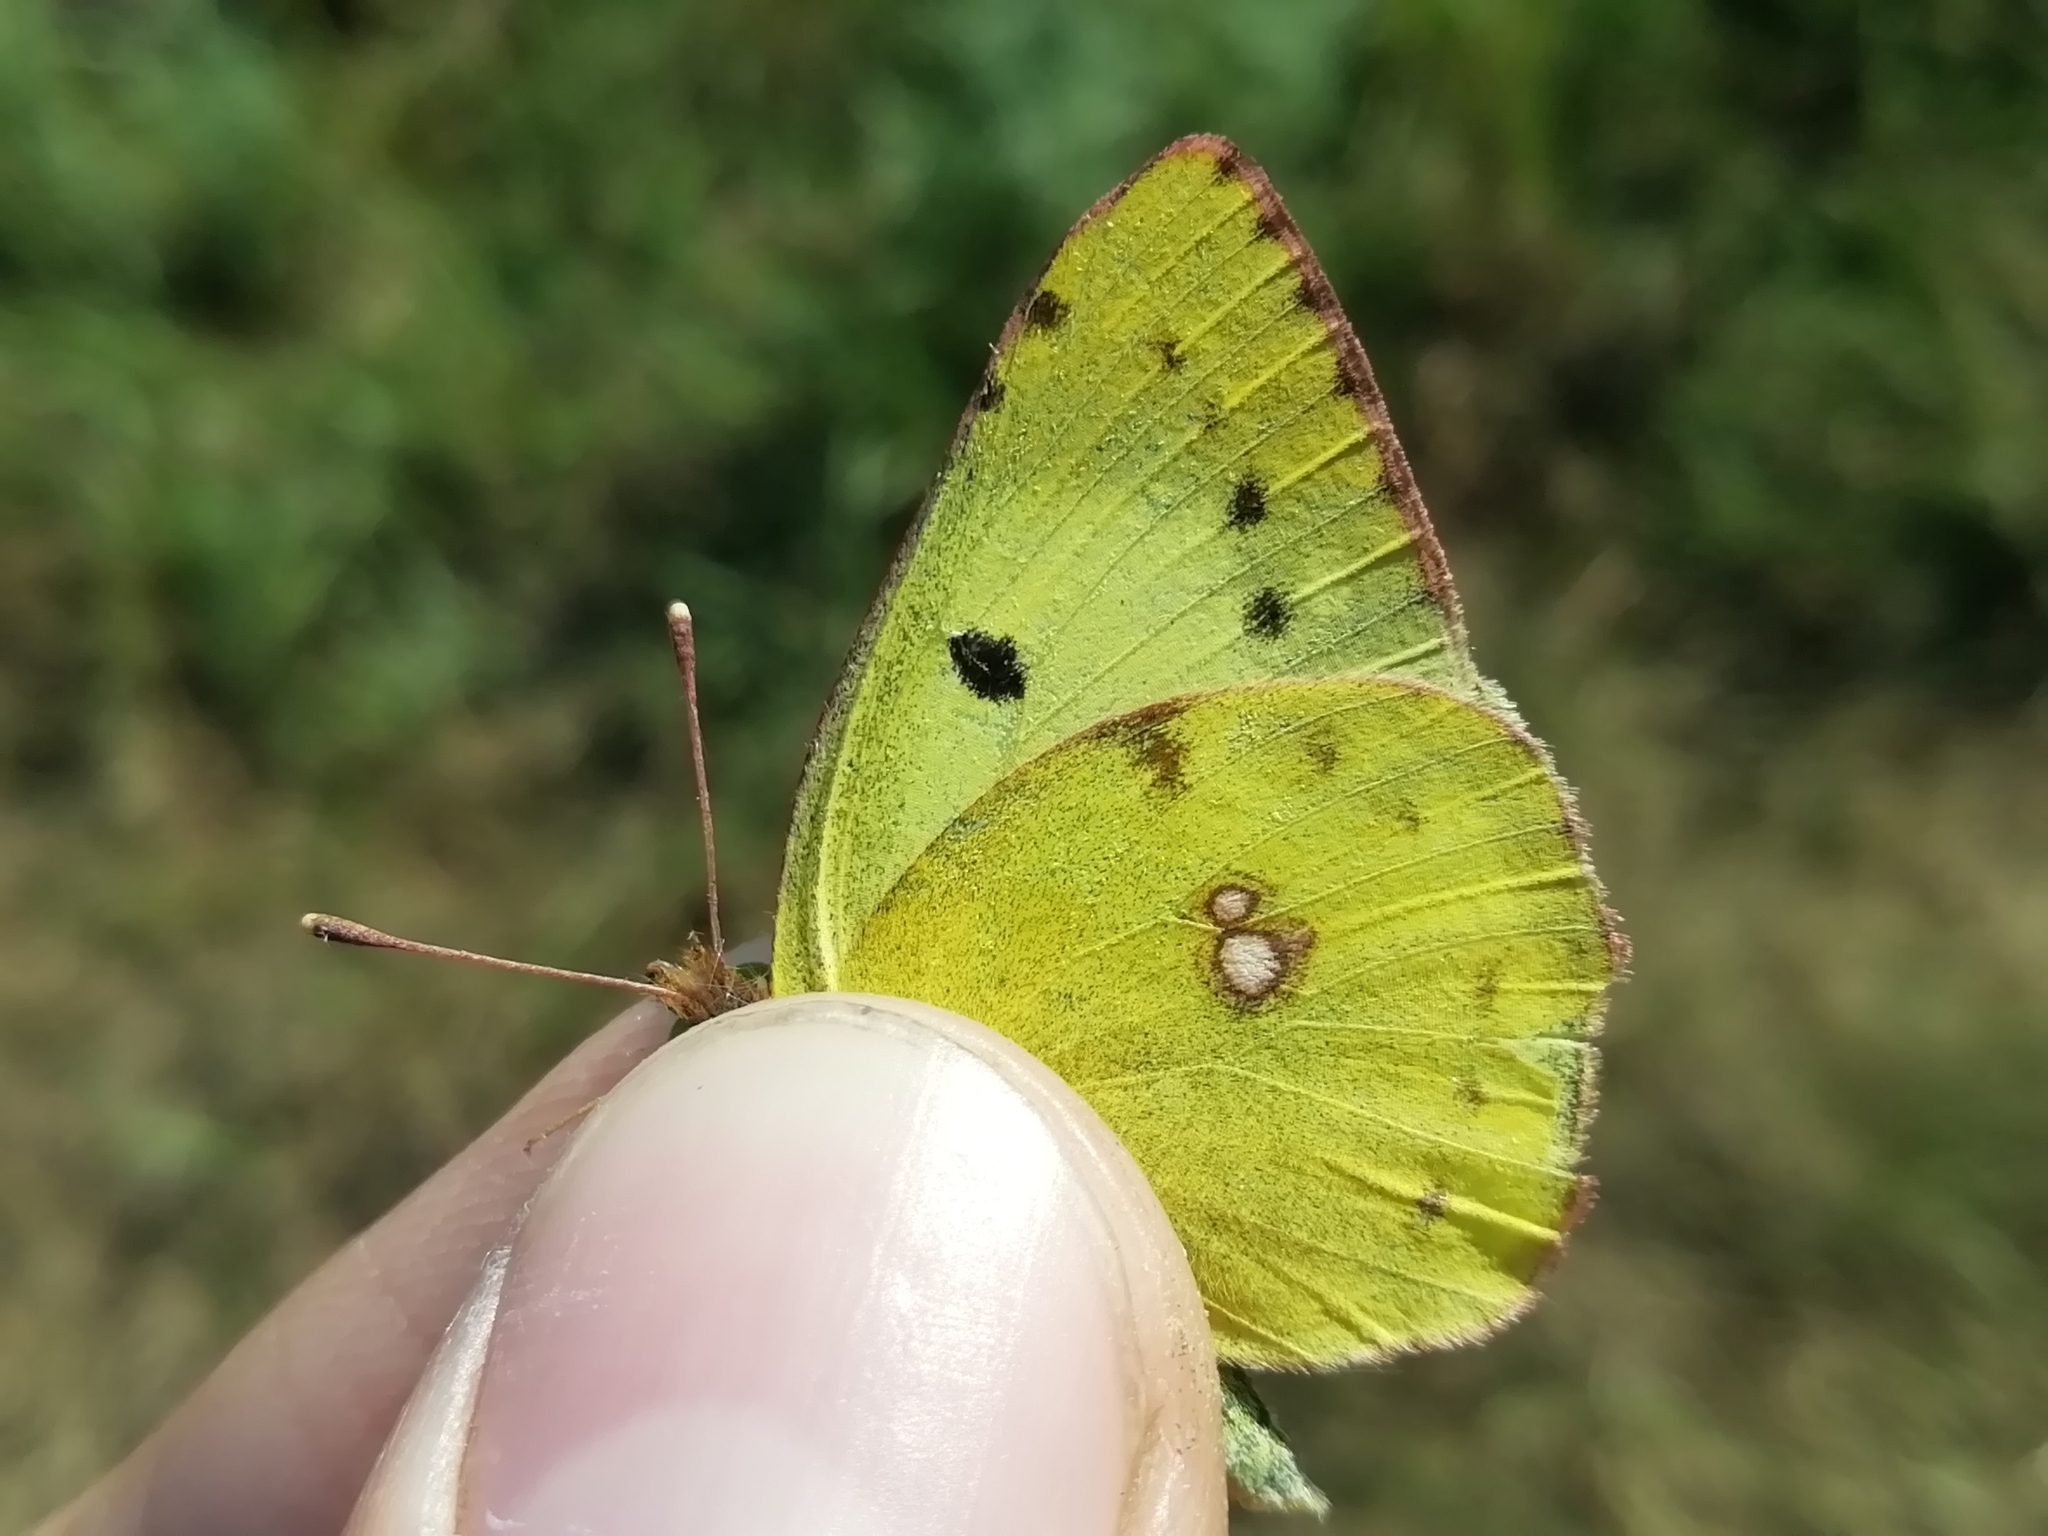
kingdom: Animalia
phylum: Arthropoda
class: Insecta
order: Lepidoptera
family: Pieridae
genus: Colias
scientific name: Colias hyale
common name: Pale clouded yellow
